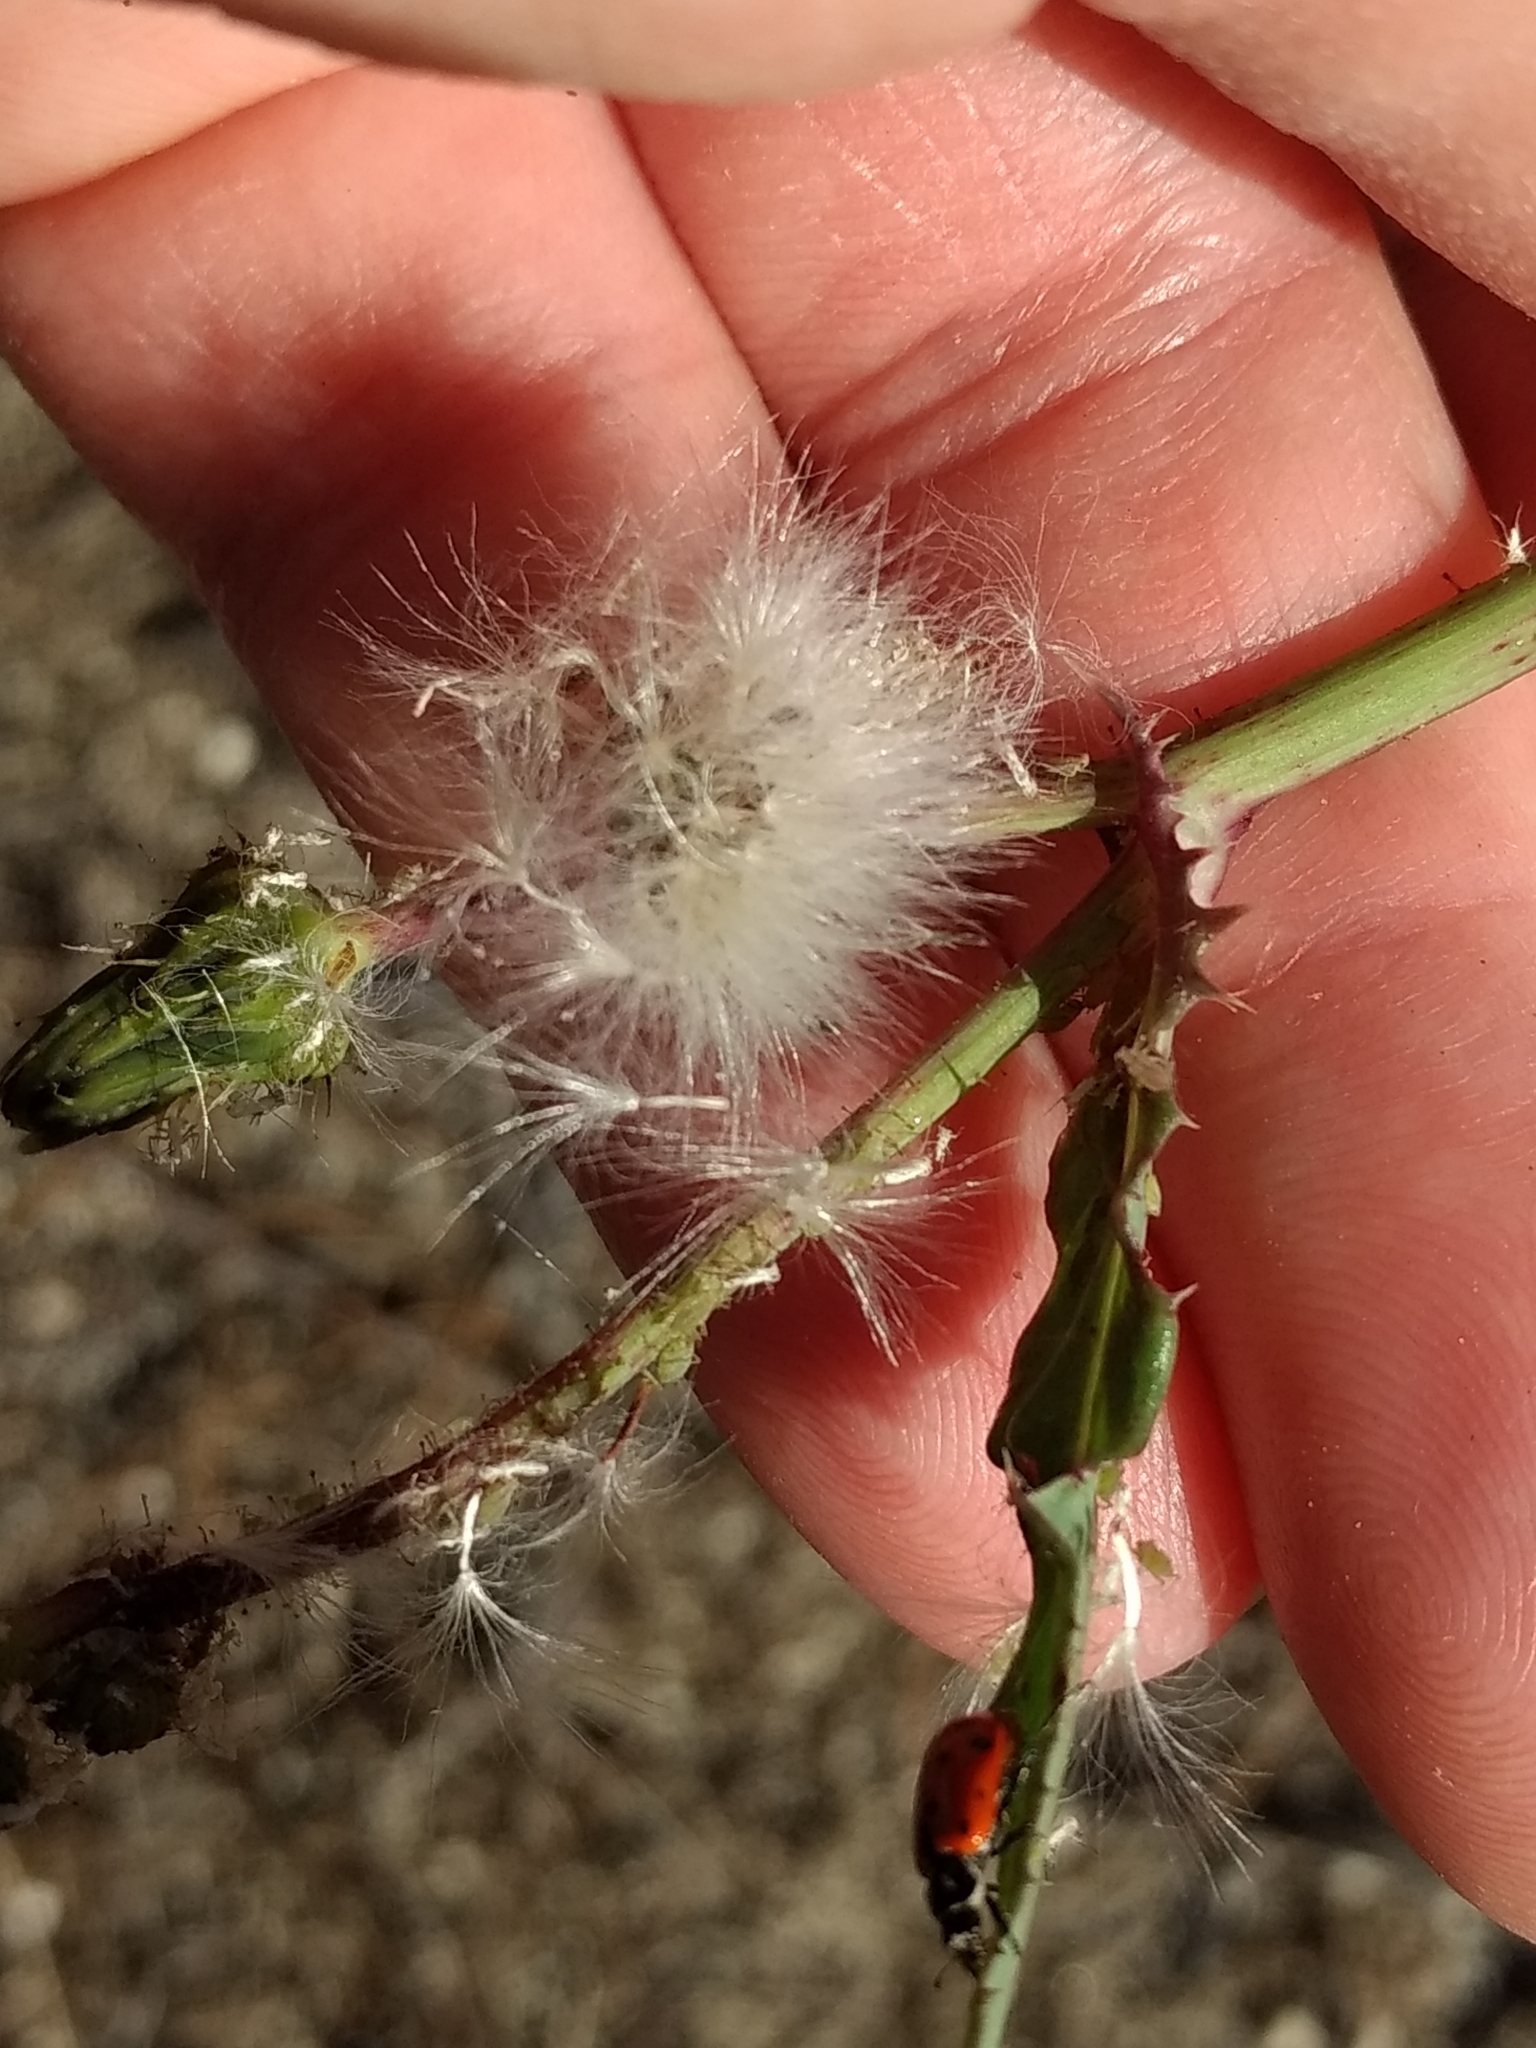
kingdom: Animalia
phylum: Arthropoda
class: Insecta
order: Coleoptera
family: Coccinellidae
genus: Hippodamia
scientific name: Hippodamia convergens
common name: Convergent lady beetle
